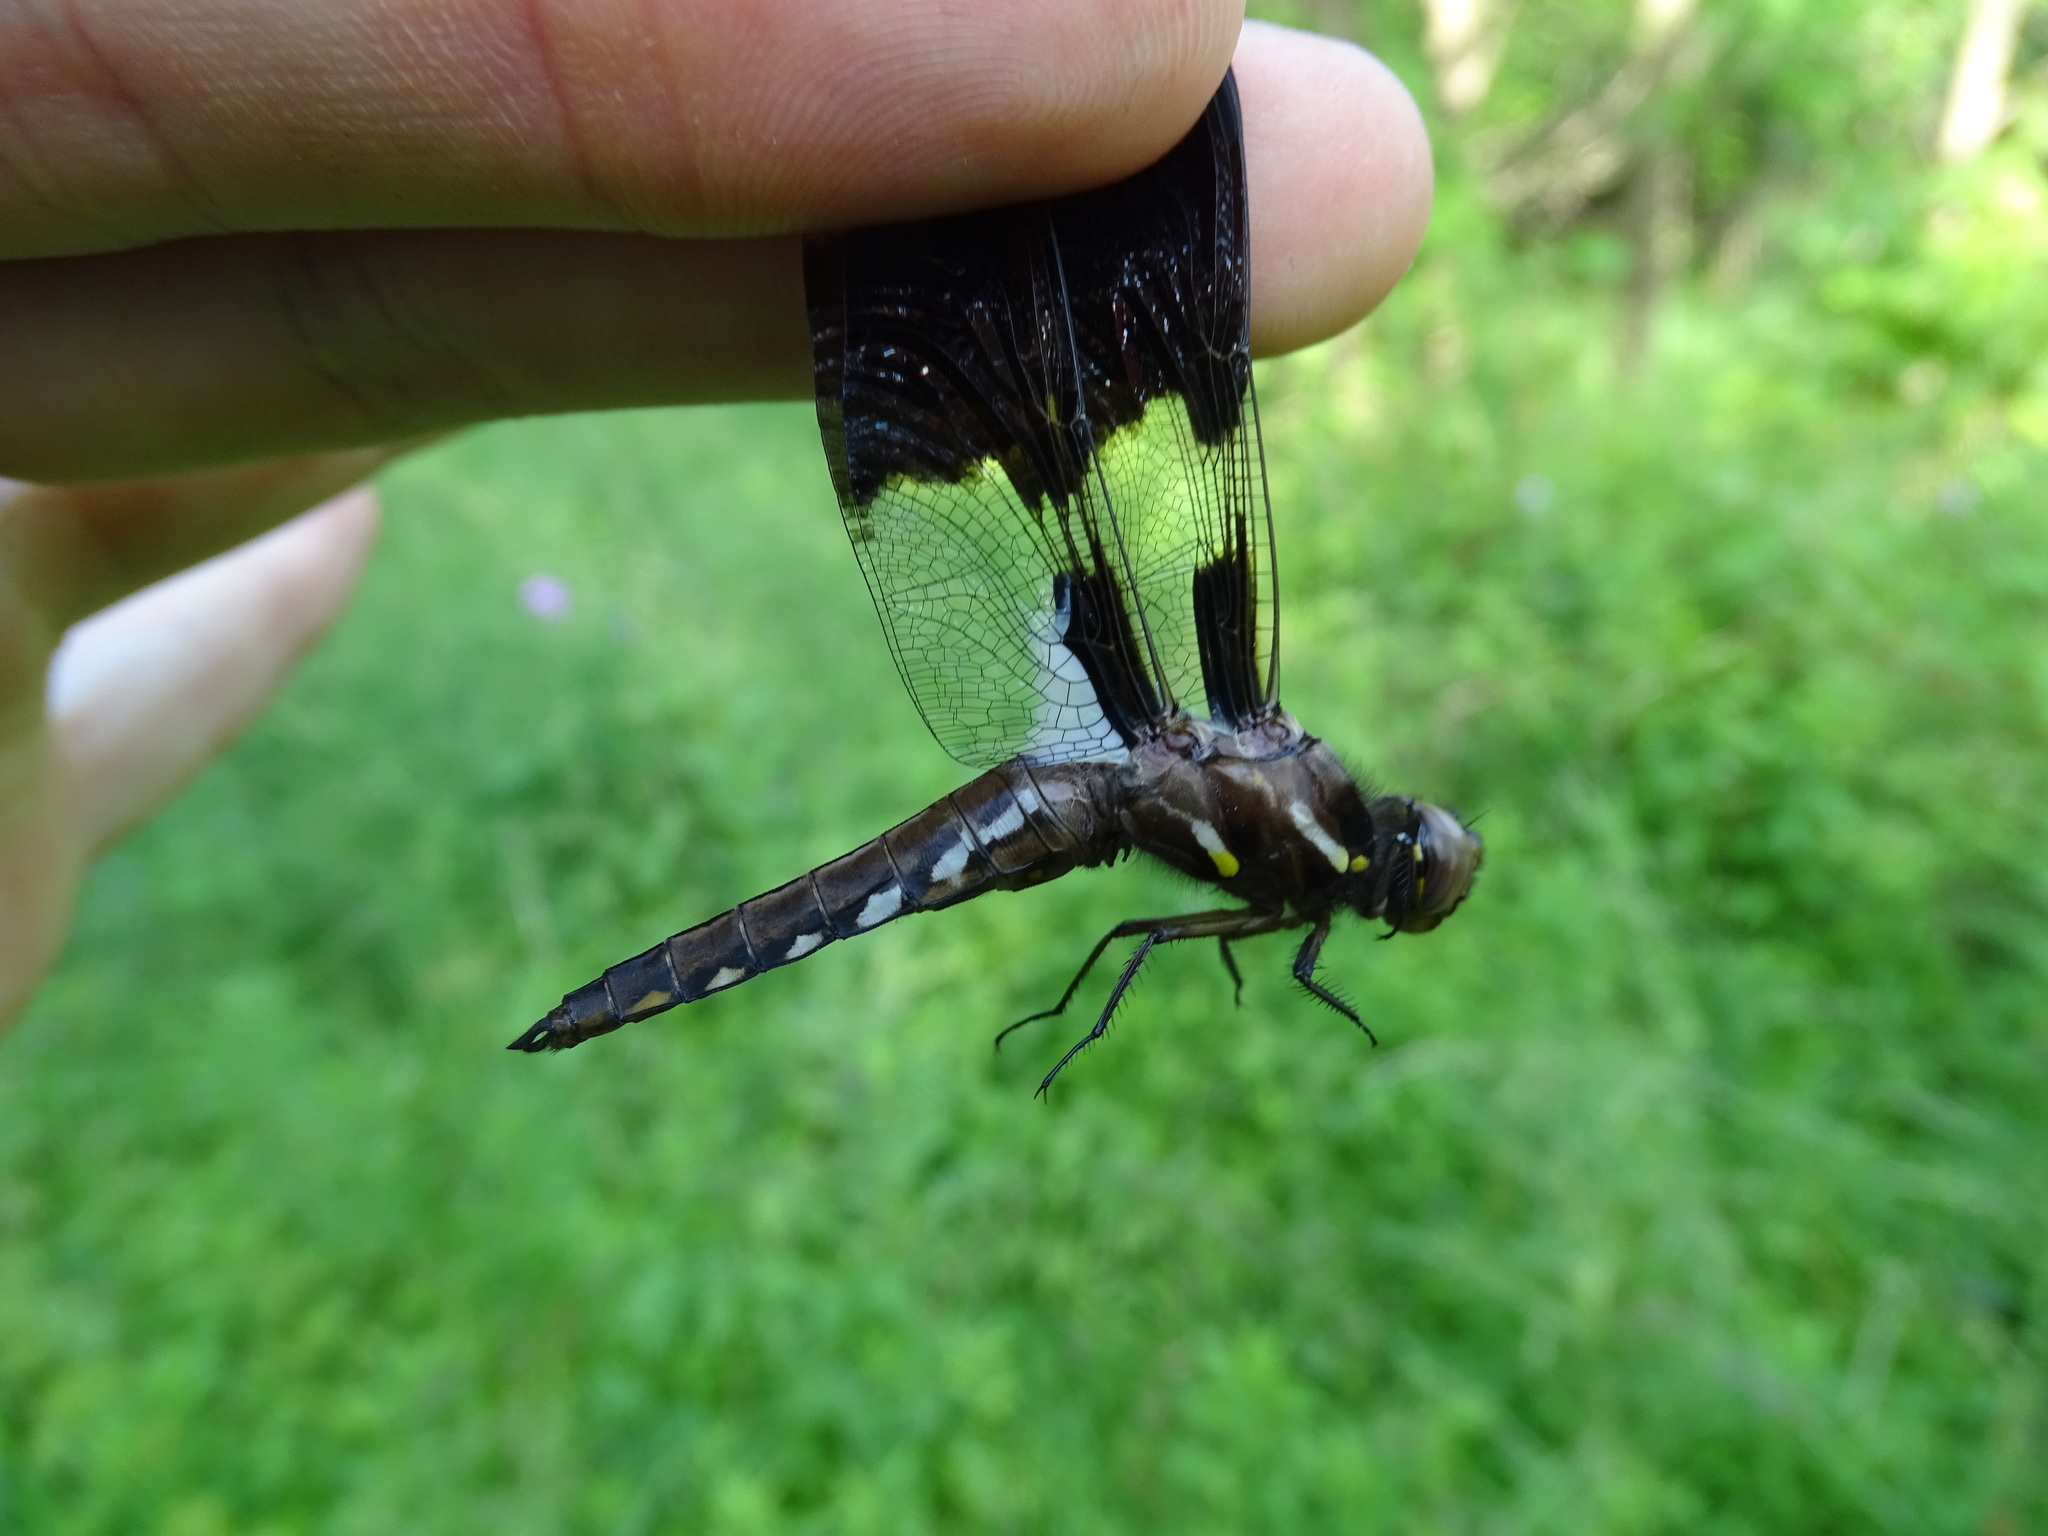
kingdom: Animalia
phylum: Arthropoda
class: Insecta
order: Odonata
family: Libellulidae
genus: Plathemis
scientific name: Plathemis lydia
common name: Common whitetail
